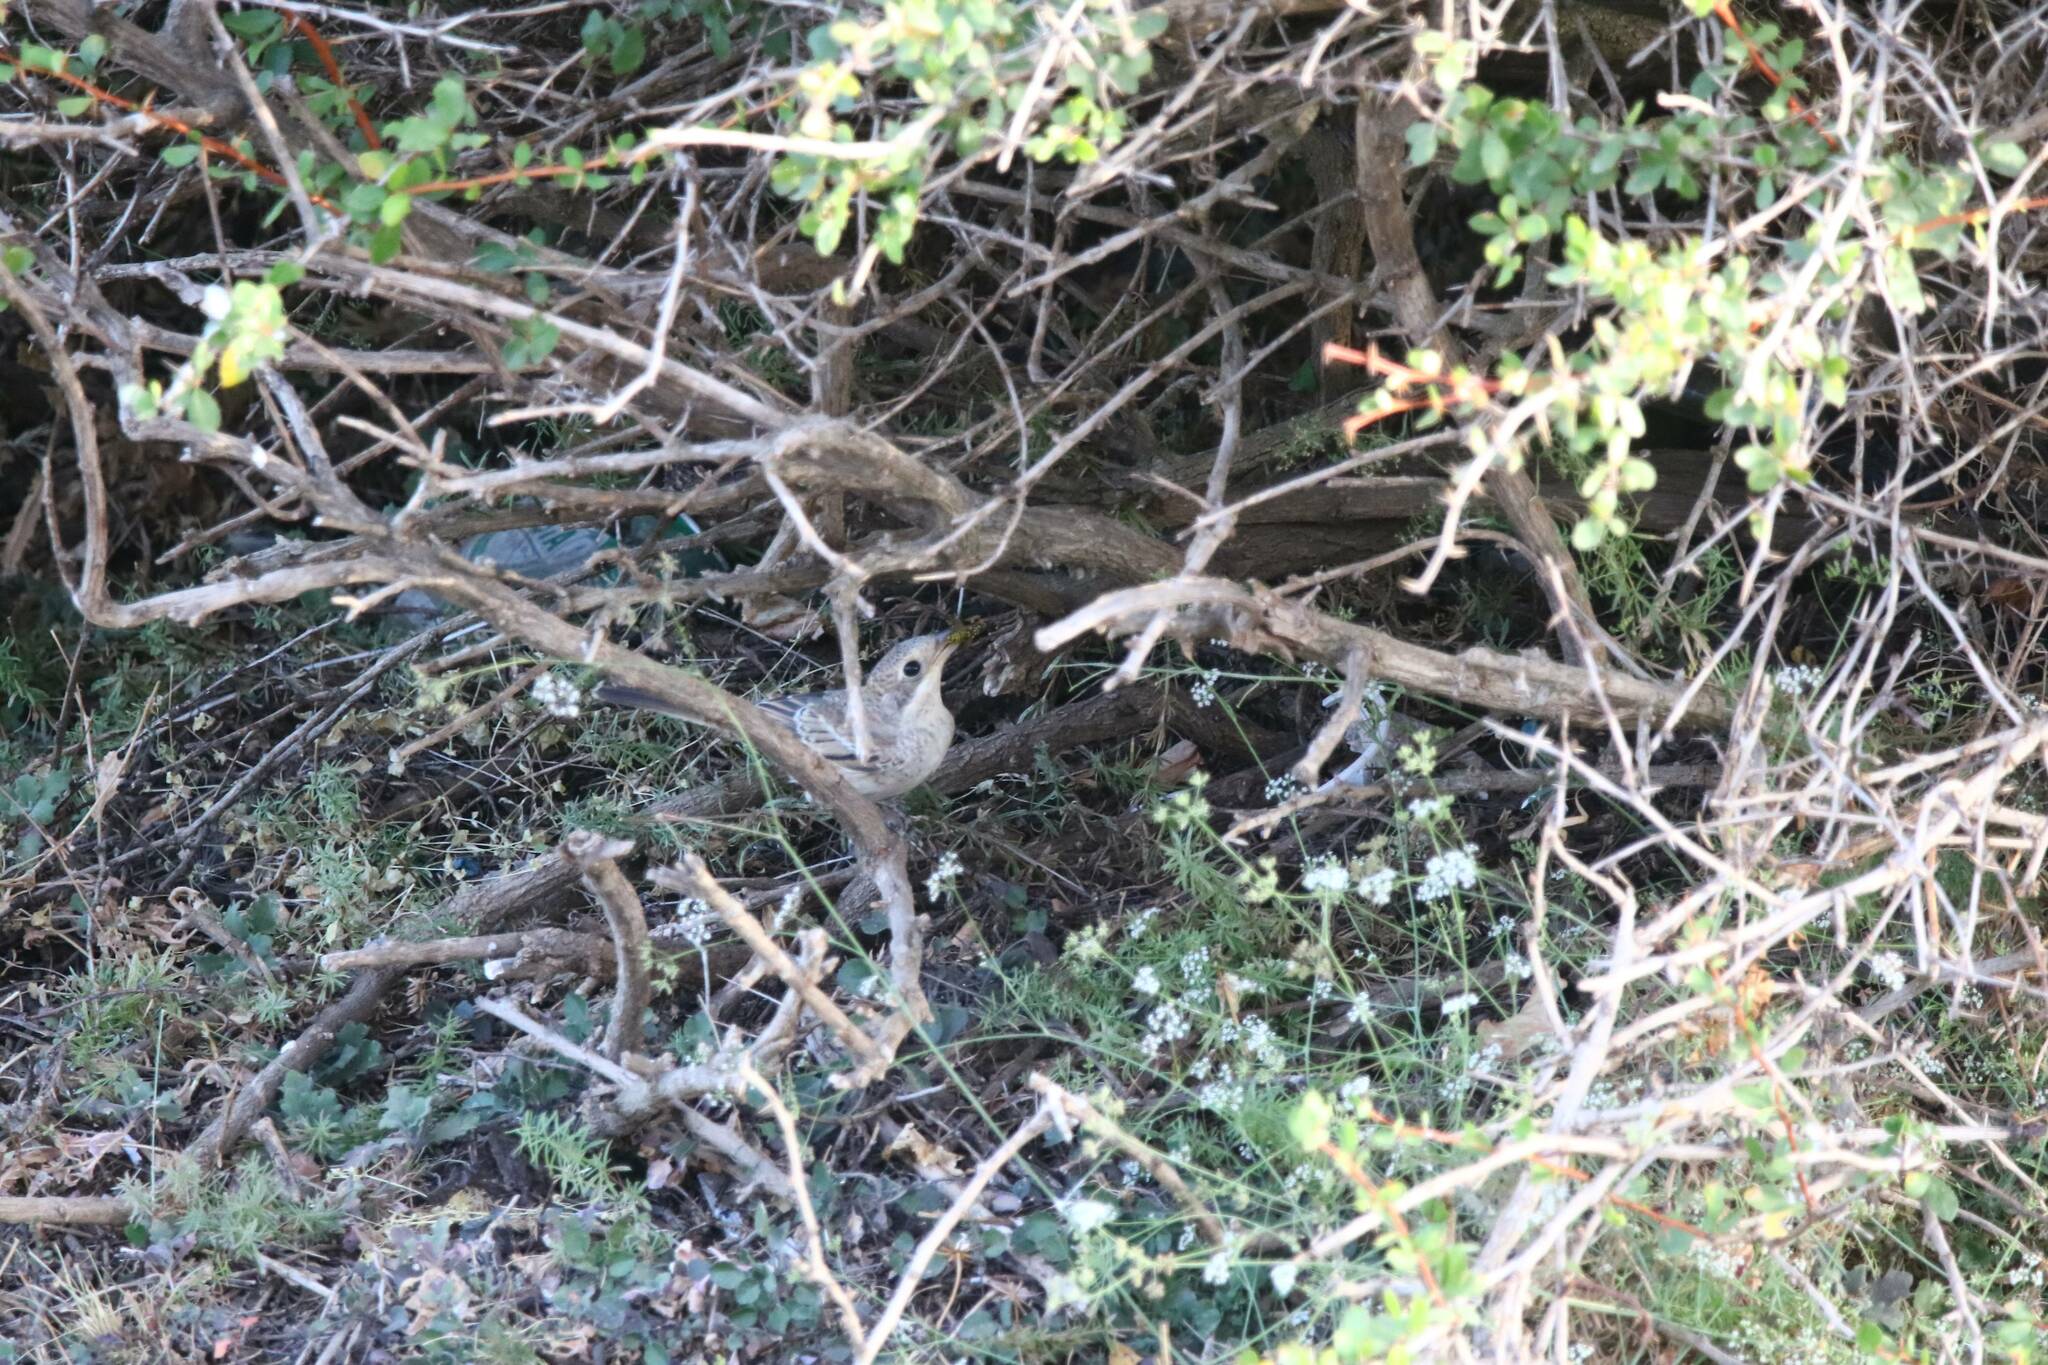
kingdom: Animalia
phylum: Chordata
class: Aves
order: Passeriformes
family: Laniidae
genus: Lanius
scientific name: Lanius senator
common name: Woodchat shrike
